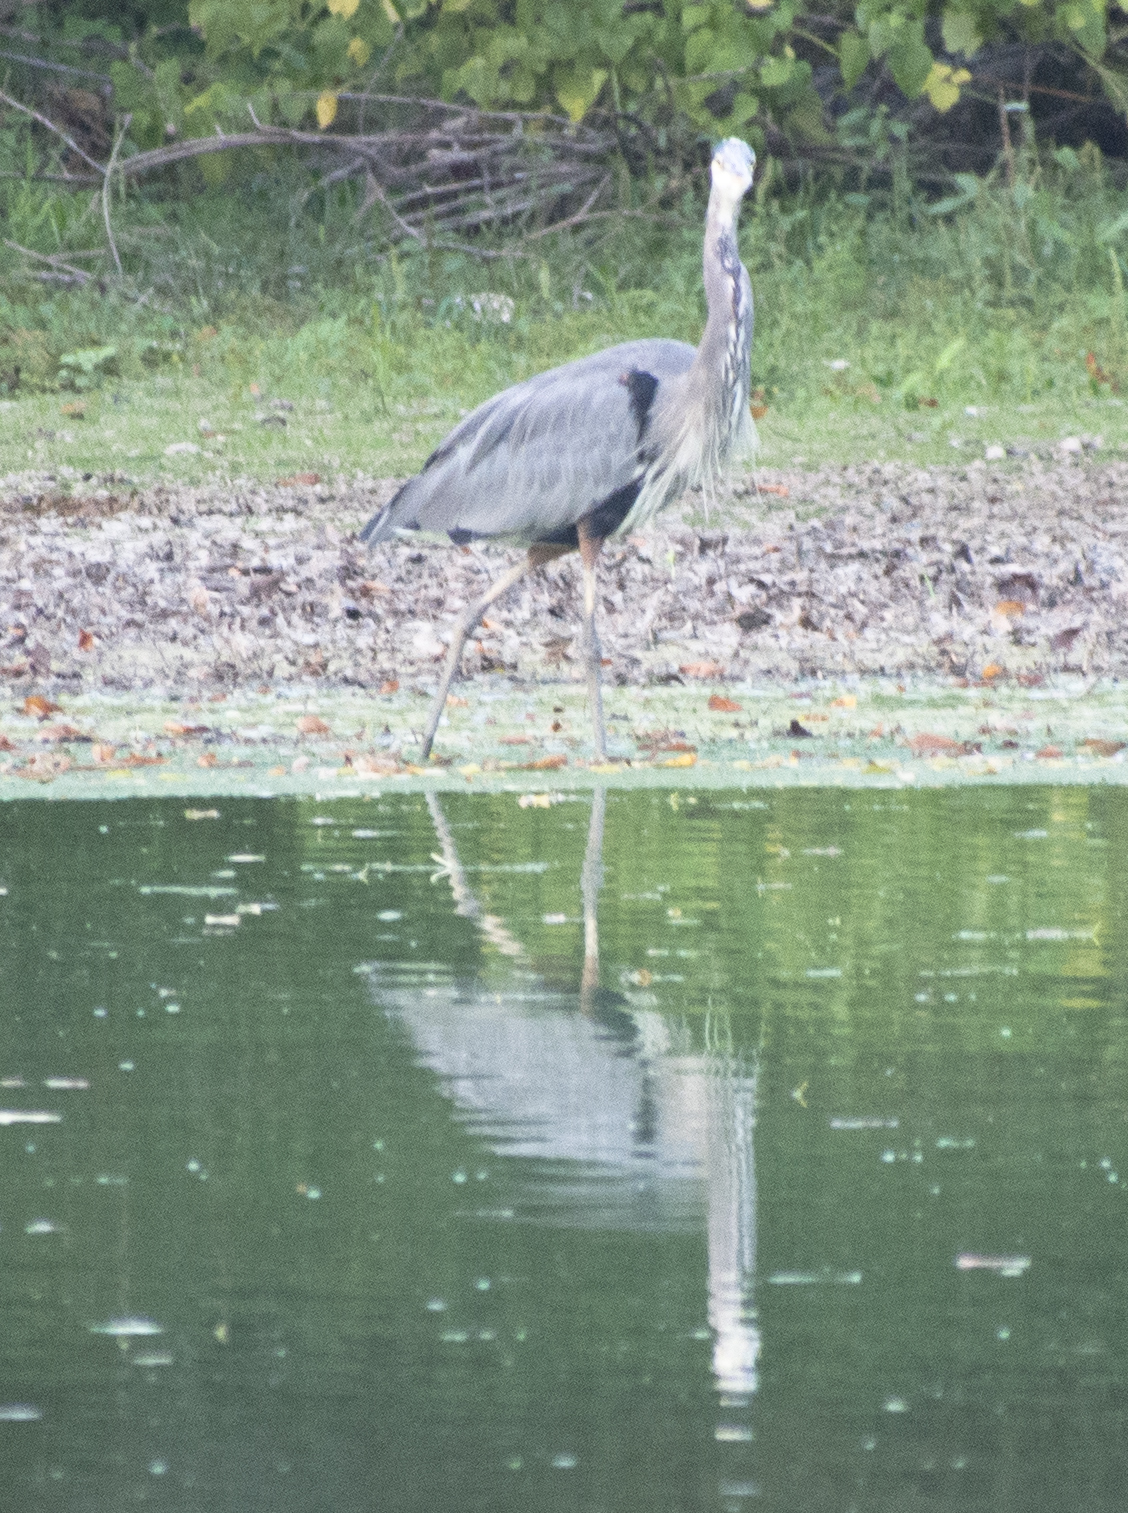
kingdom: Animalia
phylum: Chordata
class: Aves
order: Pelecaniformes
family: Ardeidae
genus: Ardea
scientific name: Ardea herodias
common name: Great blue heron
